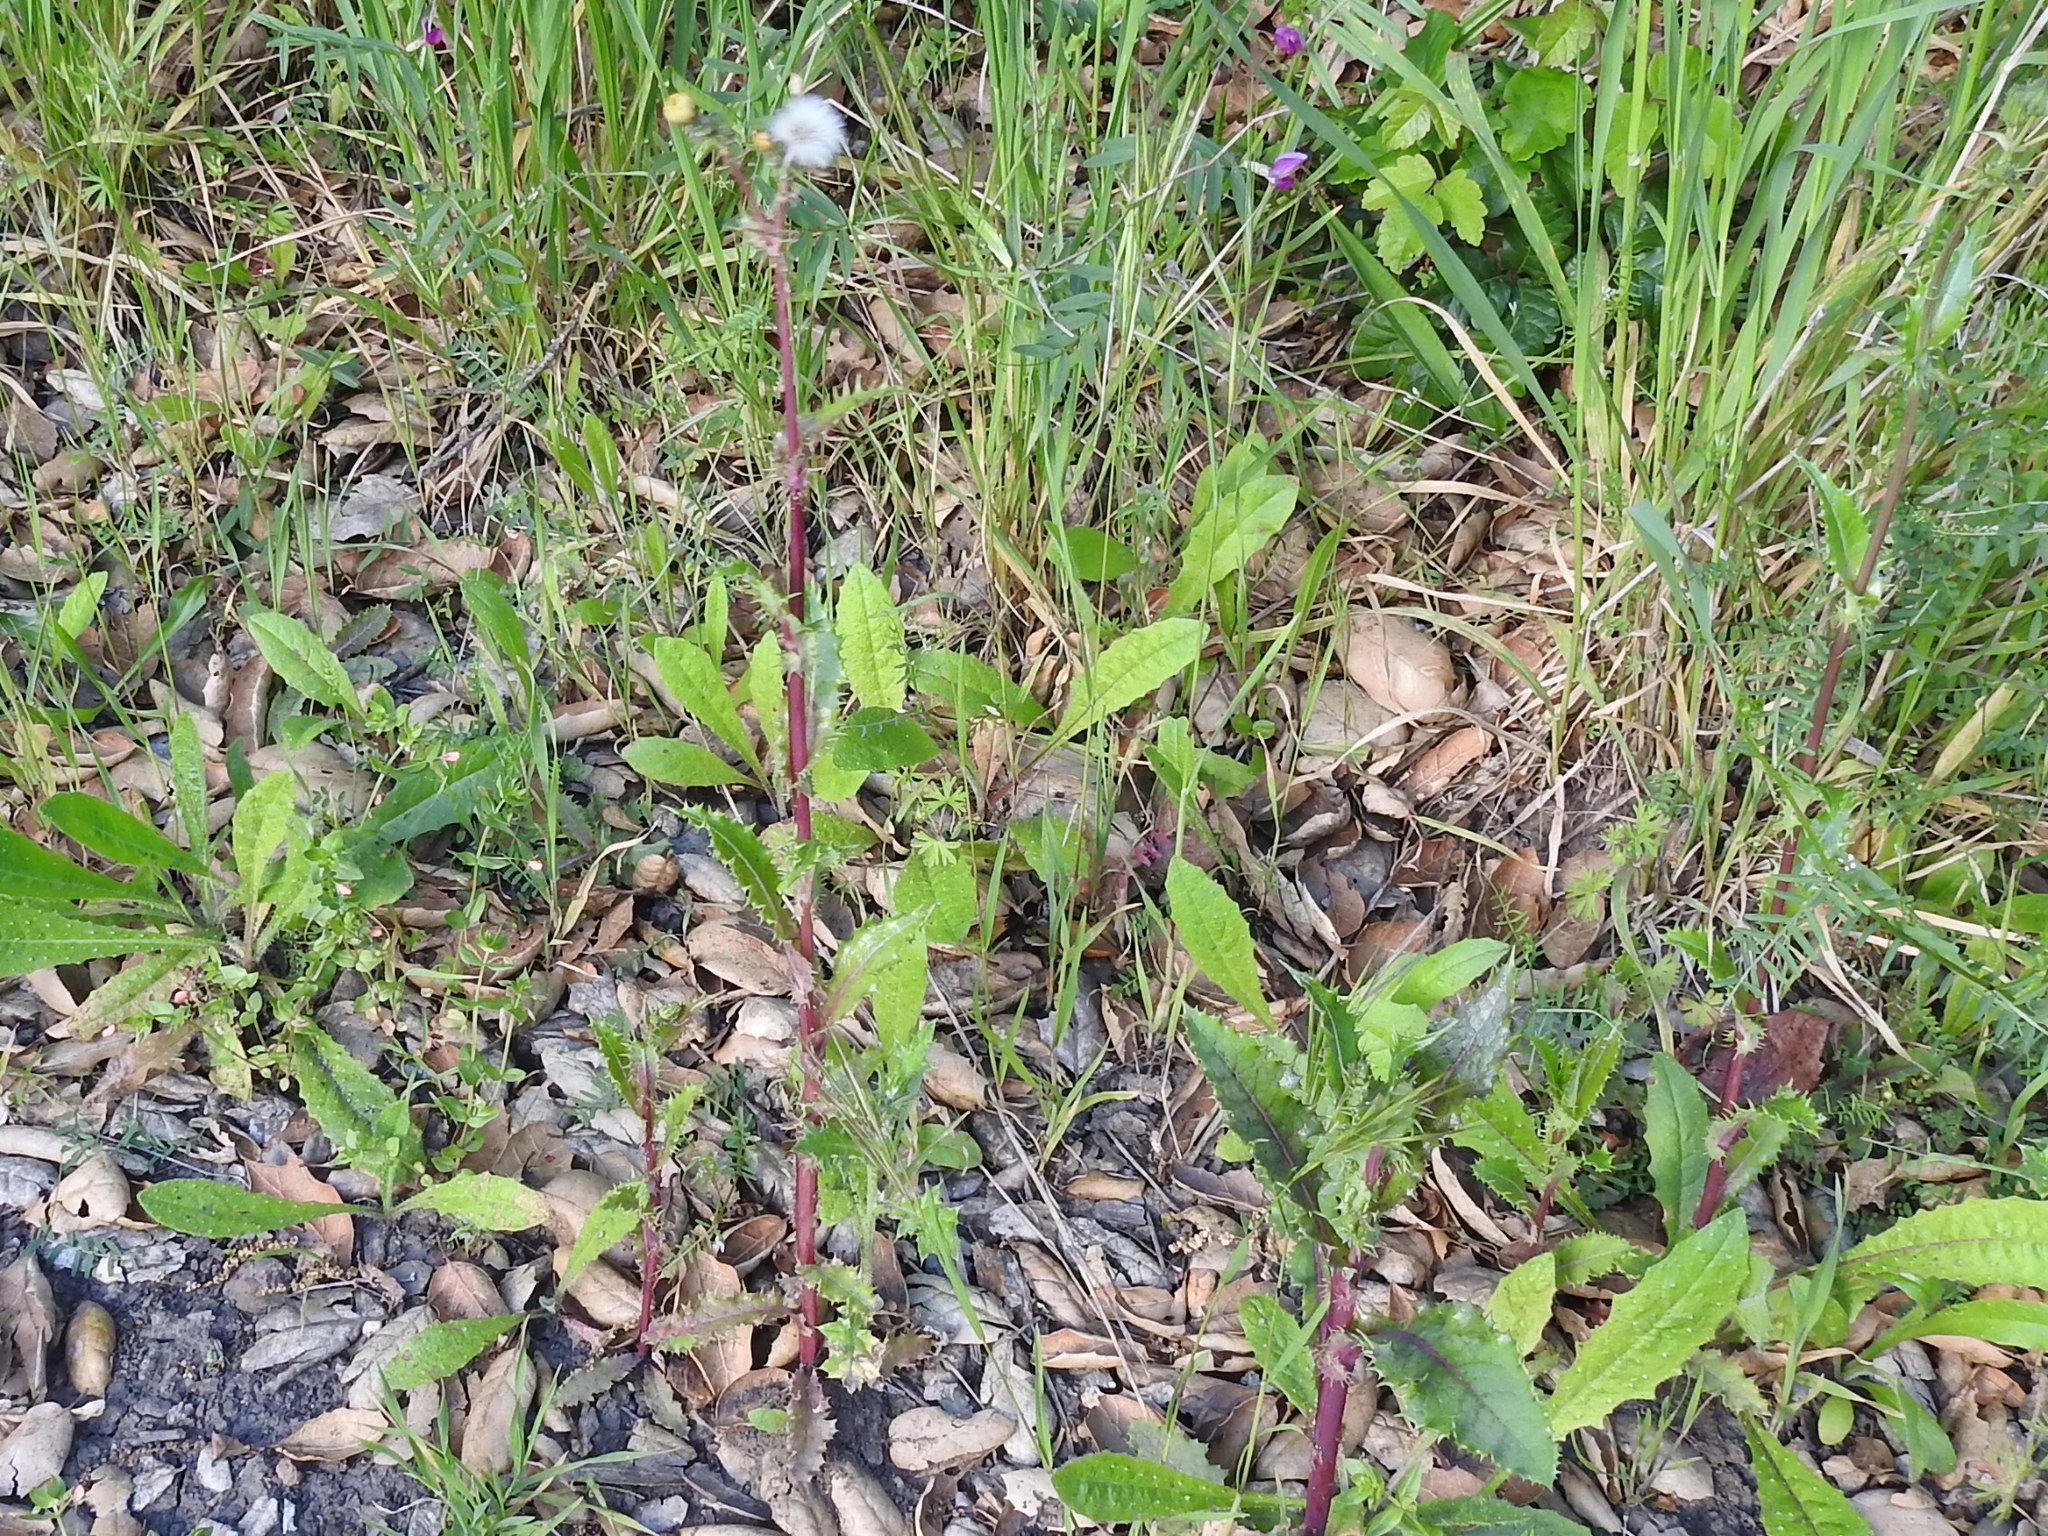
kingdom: Plantae
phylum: Tracheophyta
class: Magnoliopsida
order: Asterales
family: Asteraceae
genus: Sonchus
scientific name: Sonchus asper
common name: Prickly sow-thistle
